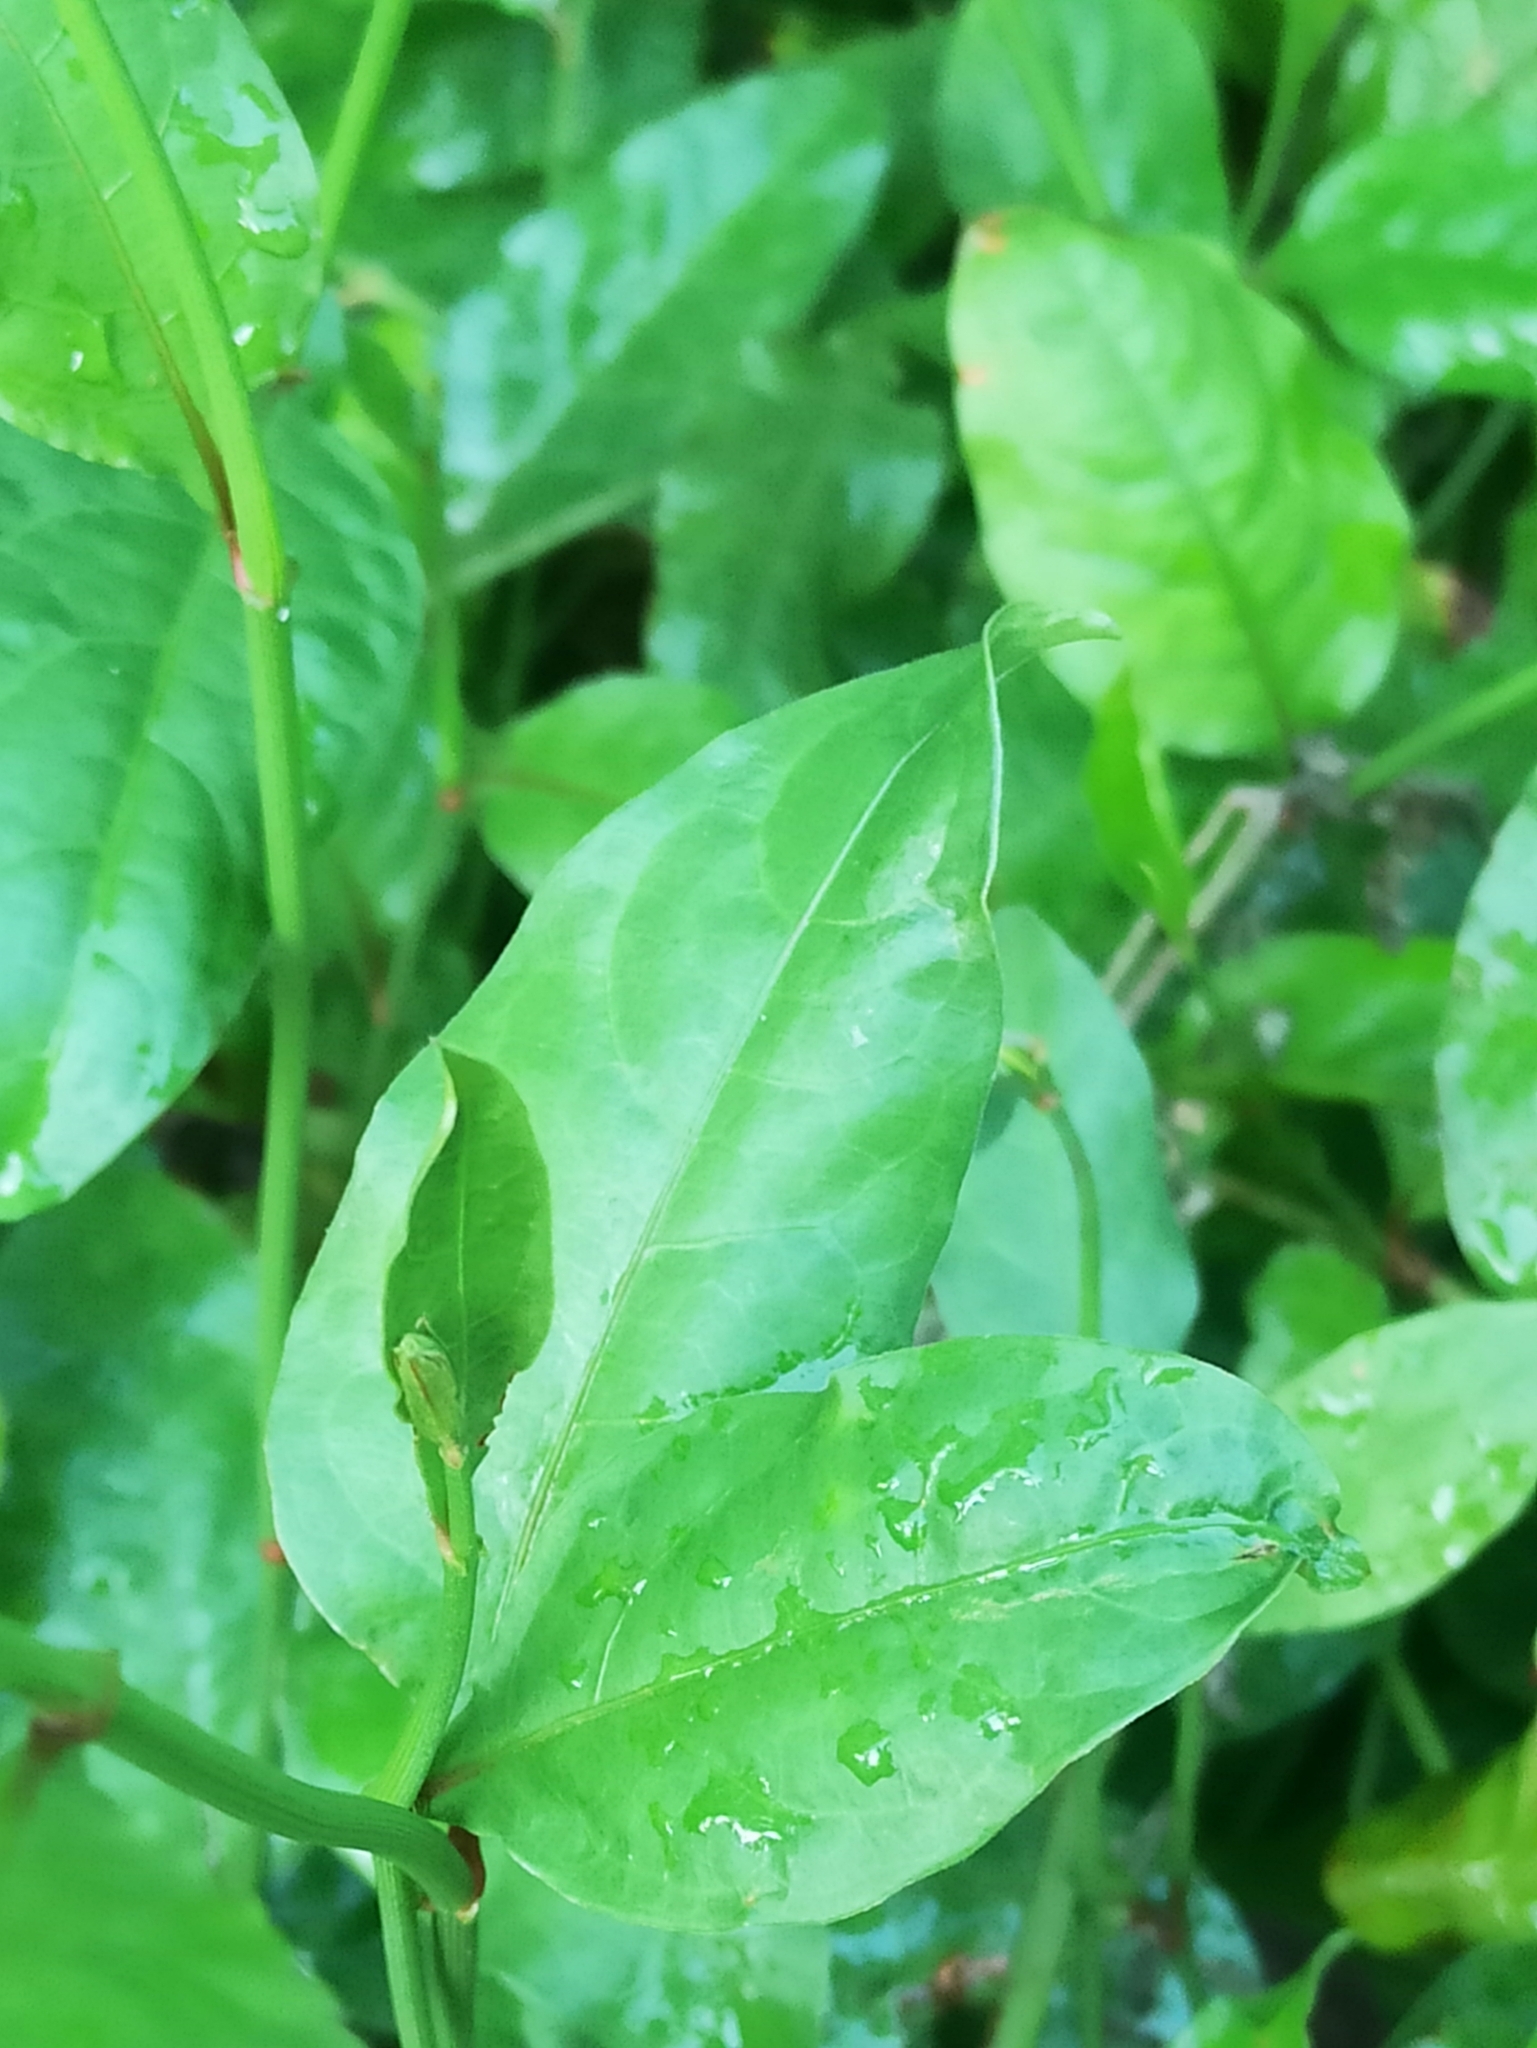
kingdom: Plantae
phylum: Tracheophyta
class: Magnoliopsida
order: Caryophyllales
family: Plumbaginaceae
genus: Plumbago
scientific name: Plumbago indica
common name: Indian leadwort
